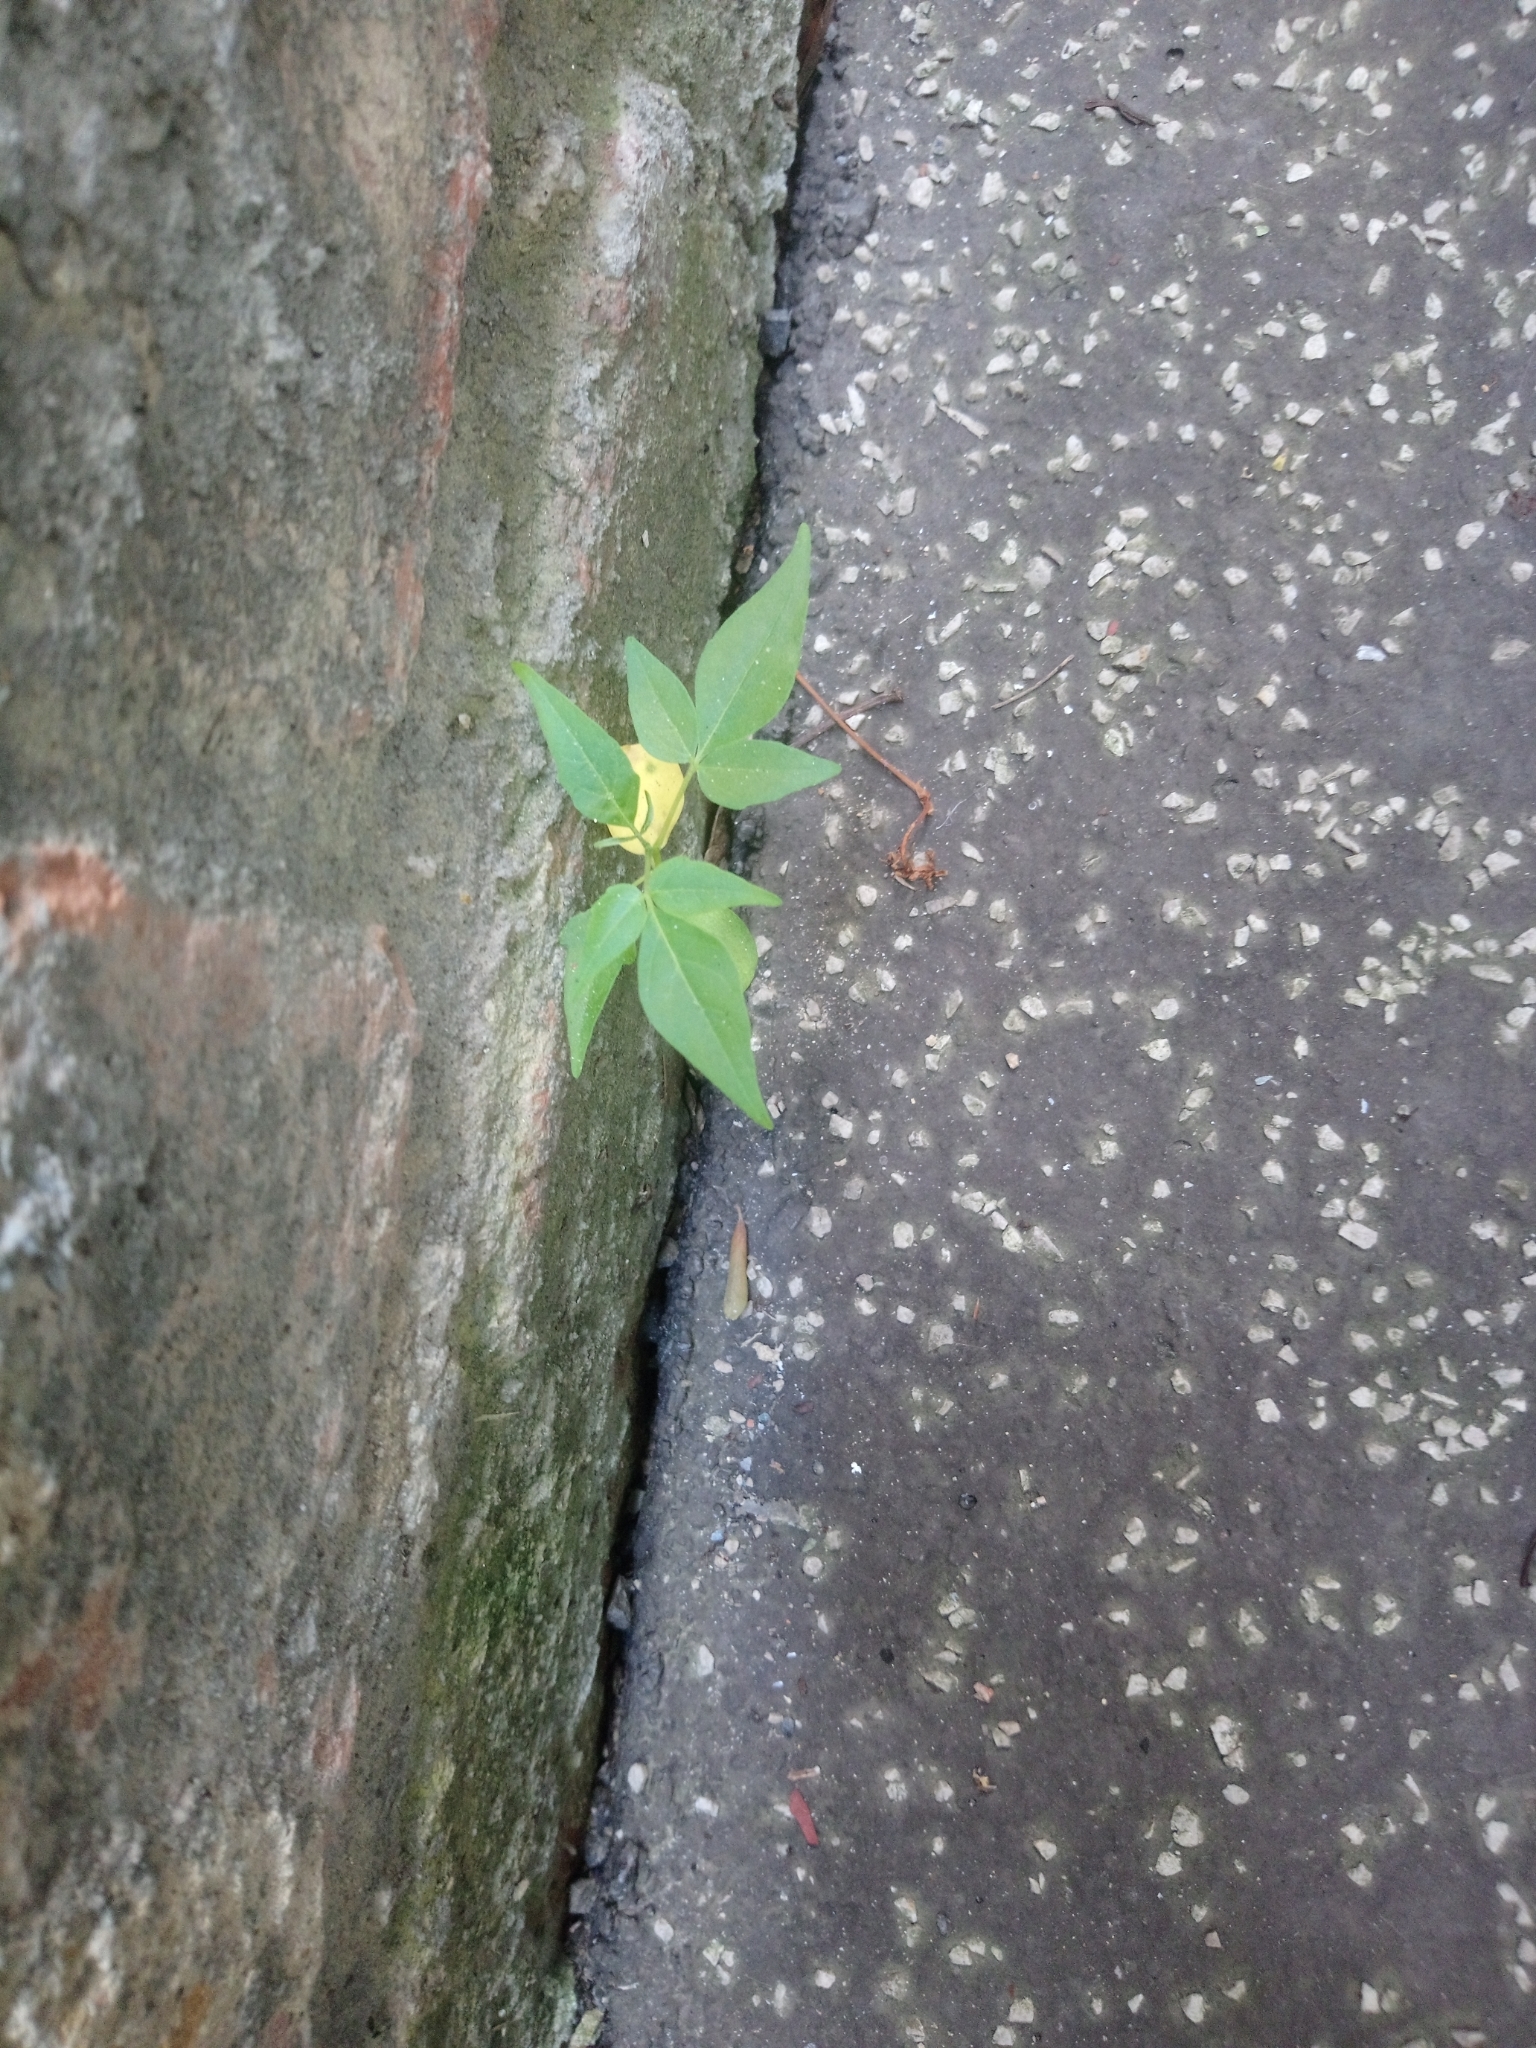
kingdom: Plantae
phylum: Tracheophyta
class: Magnoliopsida
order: Sapindales
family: Simaroubaceae
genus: Ailanthus
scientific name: Ailanthus altissima
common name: Tree-of-heaven
